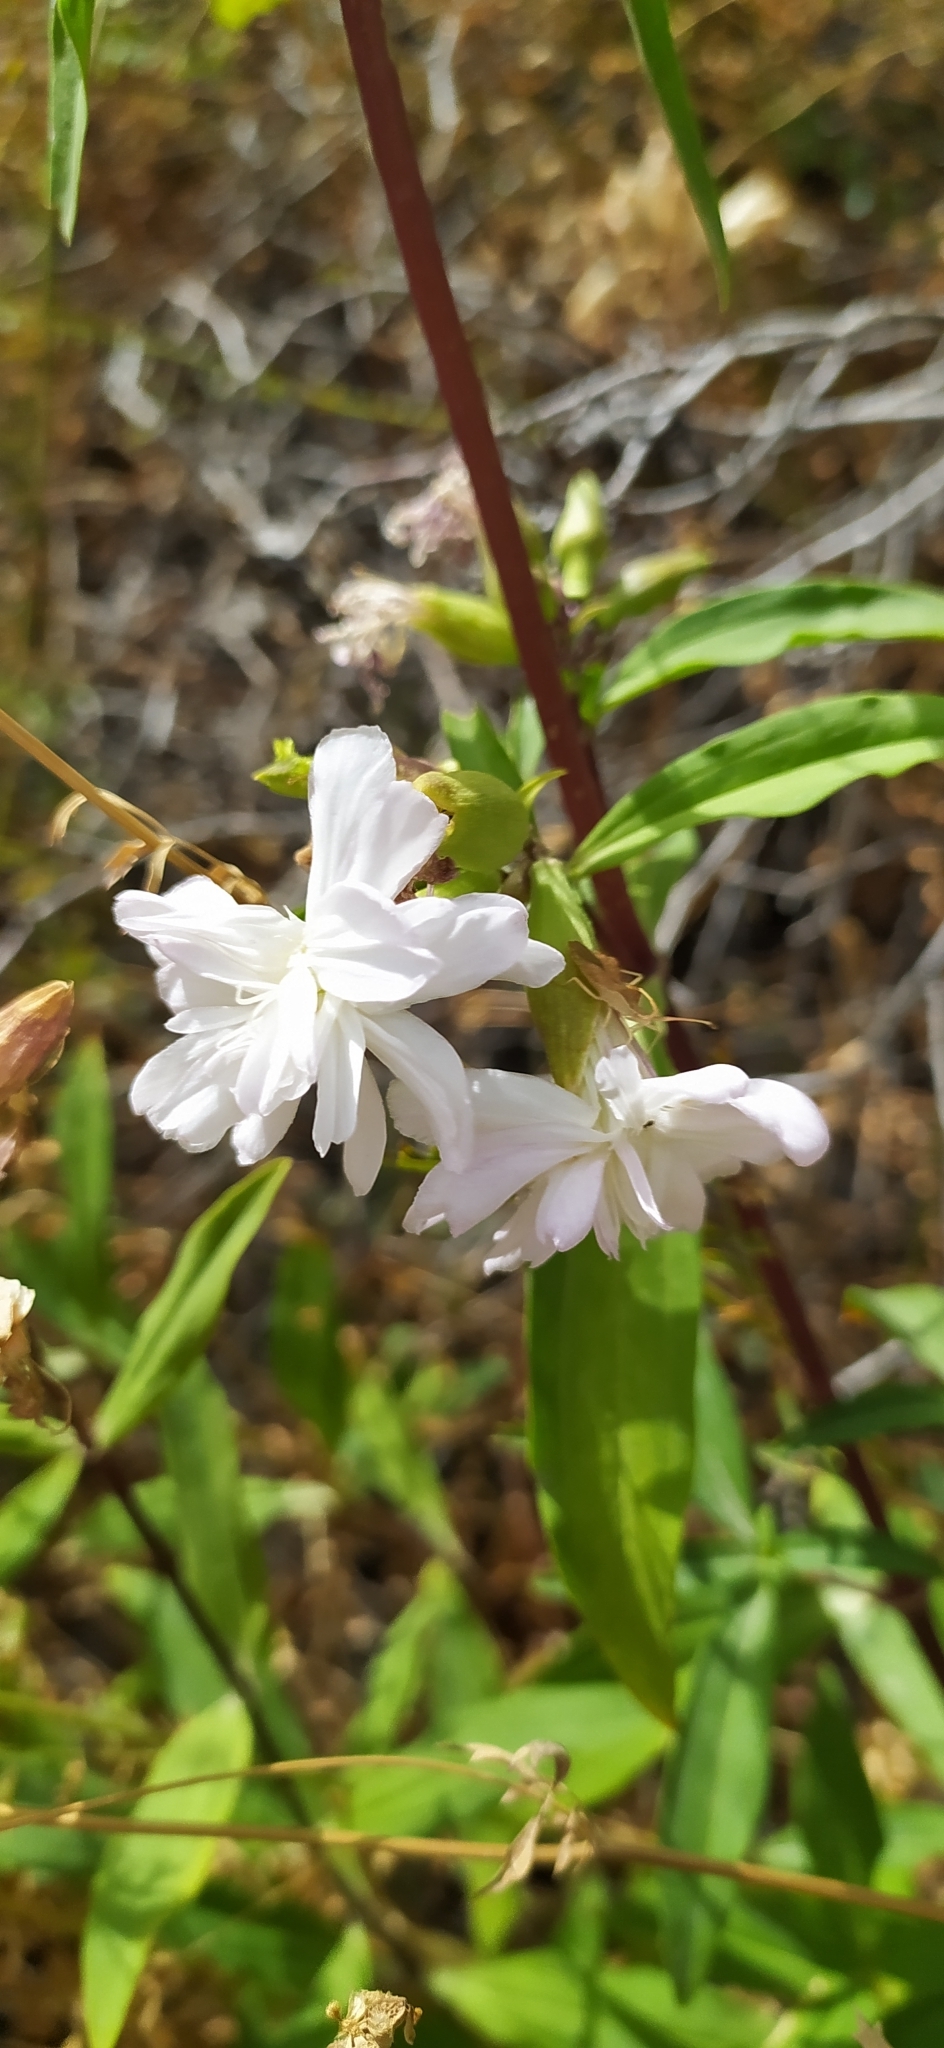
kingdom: Plantae
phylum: Tracheophyta
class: Magnoliopsida
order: Caryophyllales
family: Caryophyllaceae
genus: Saponaria
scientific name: Saponaria officinalis
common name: Soapwort
